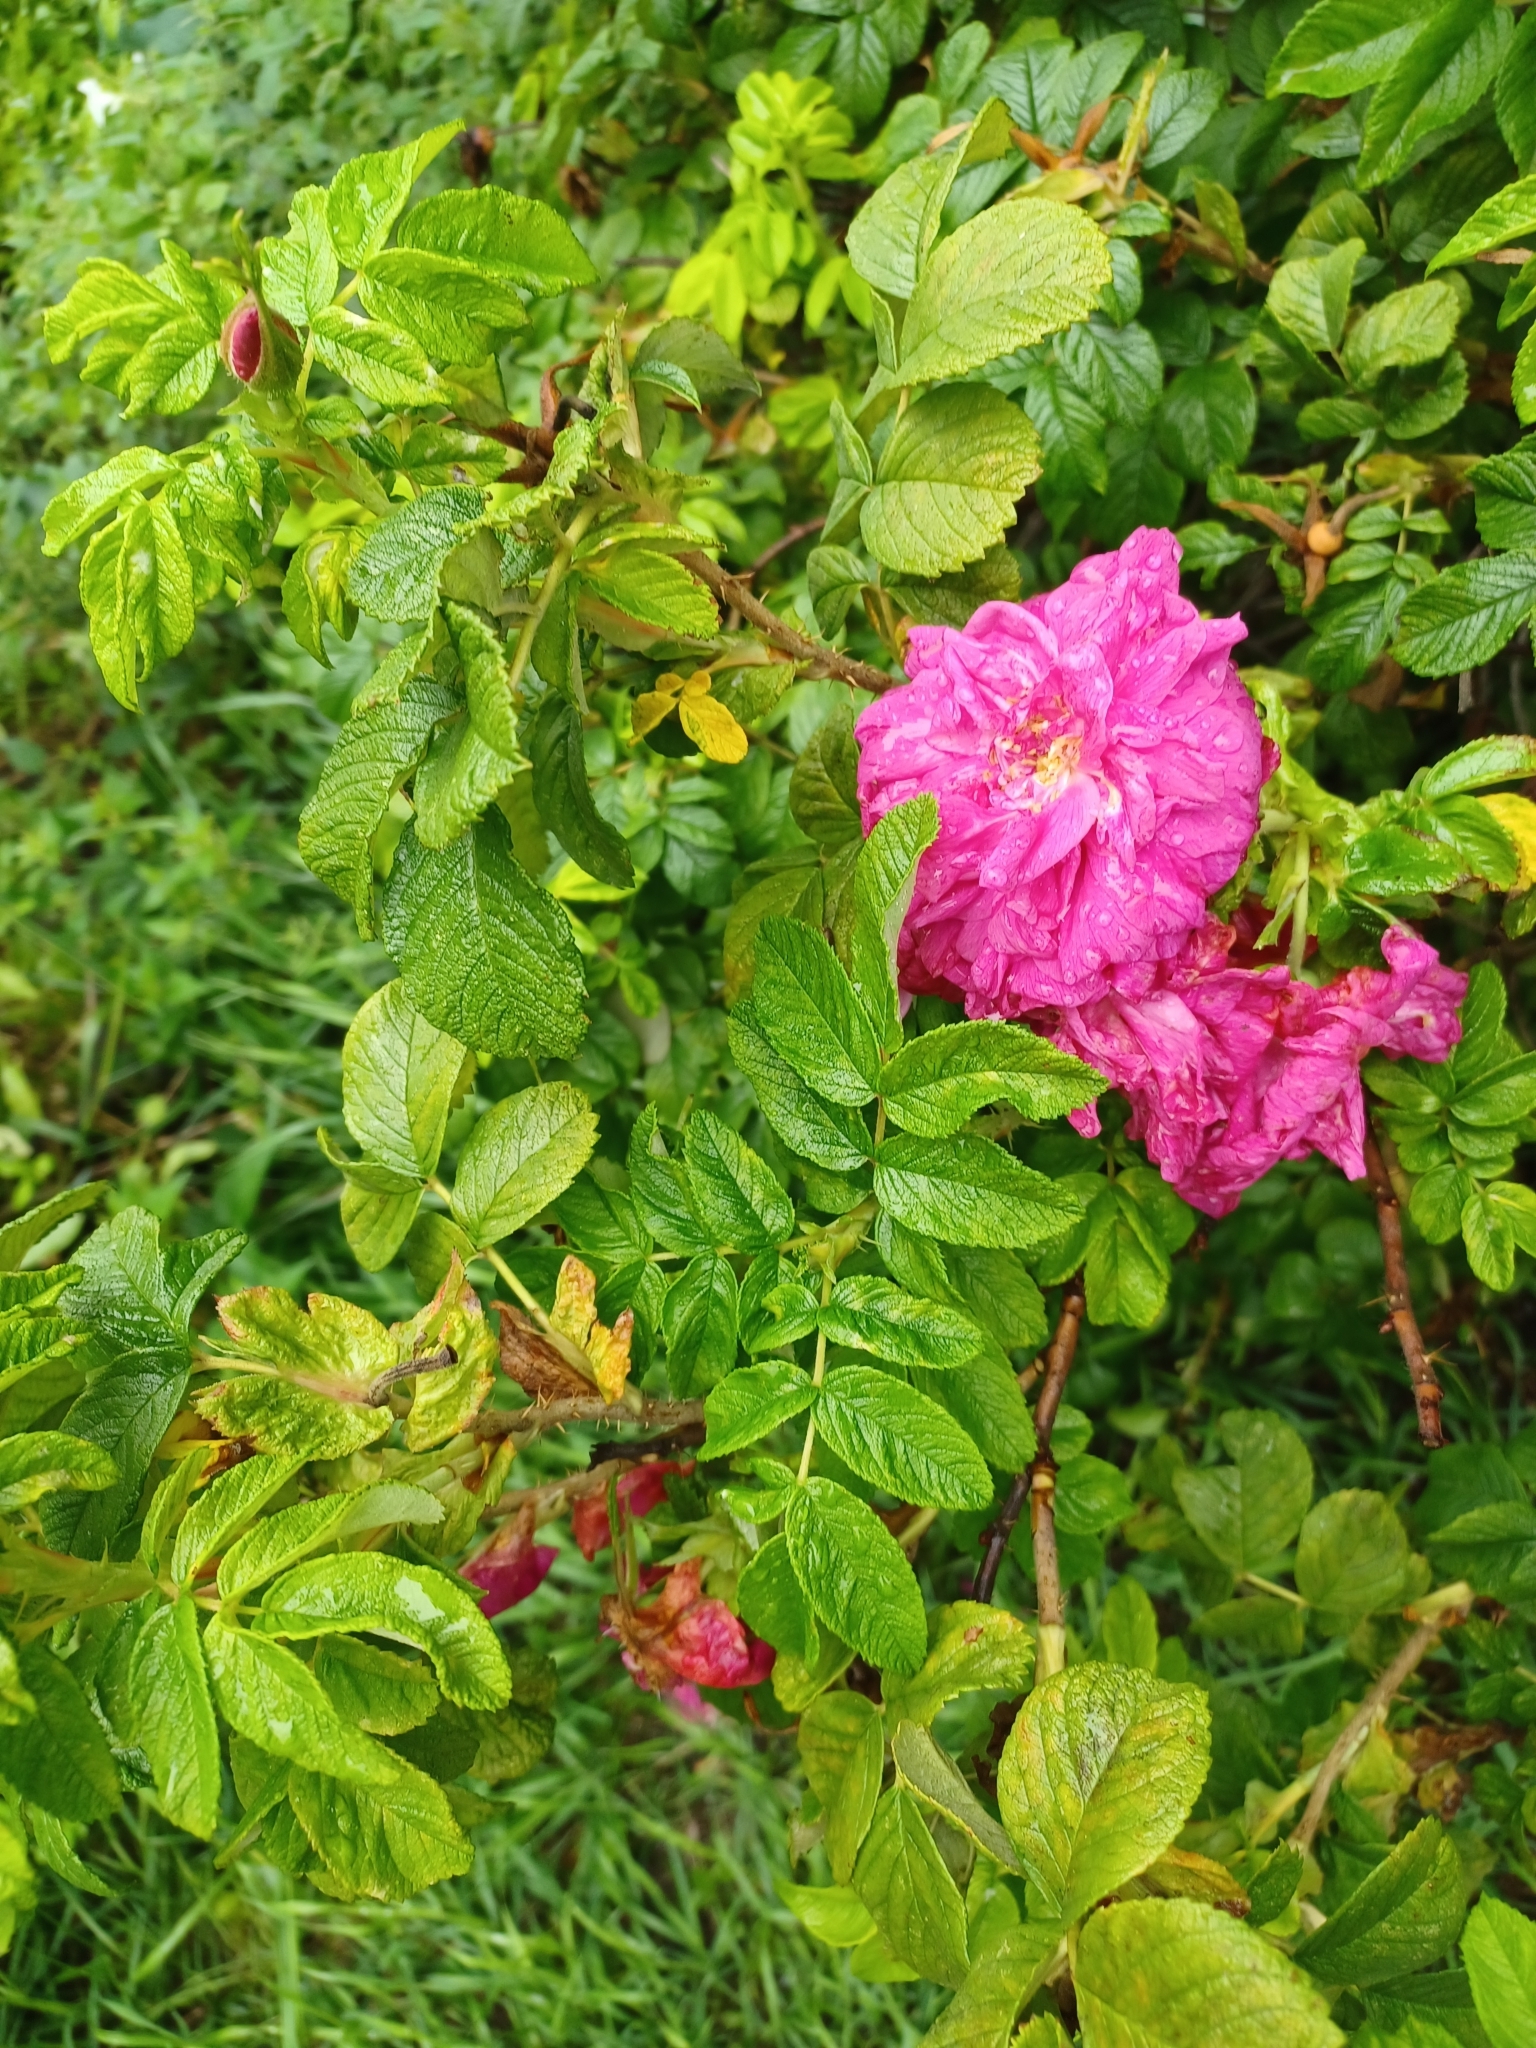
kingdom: Plantae
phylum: Tracheophyta
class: Magnoliopsida
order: Rosales
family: Rosaceae
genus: Rosa
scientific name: Rosa rugosa
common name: Japanese rose
